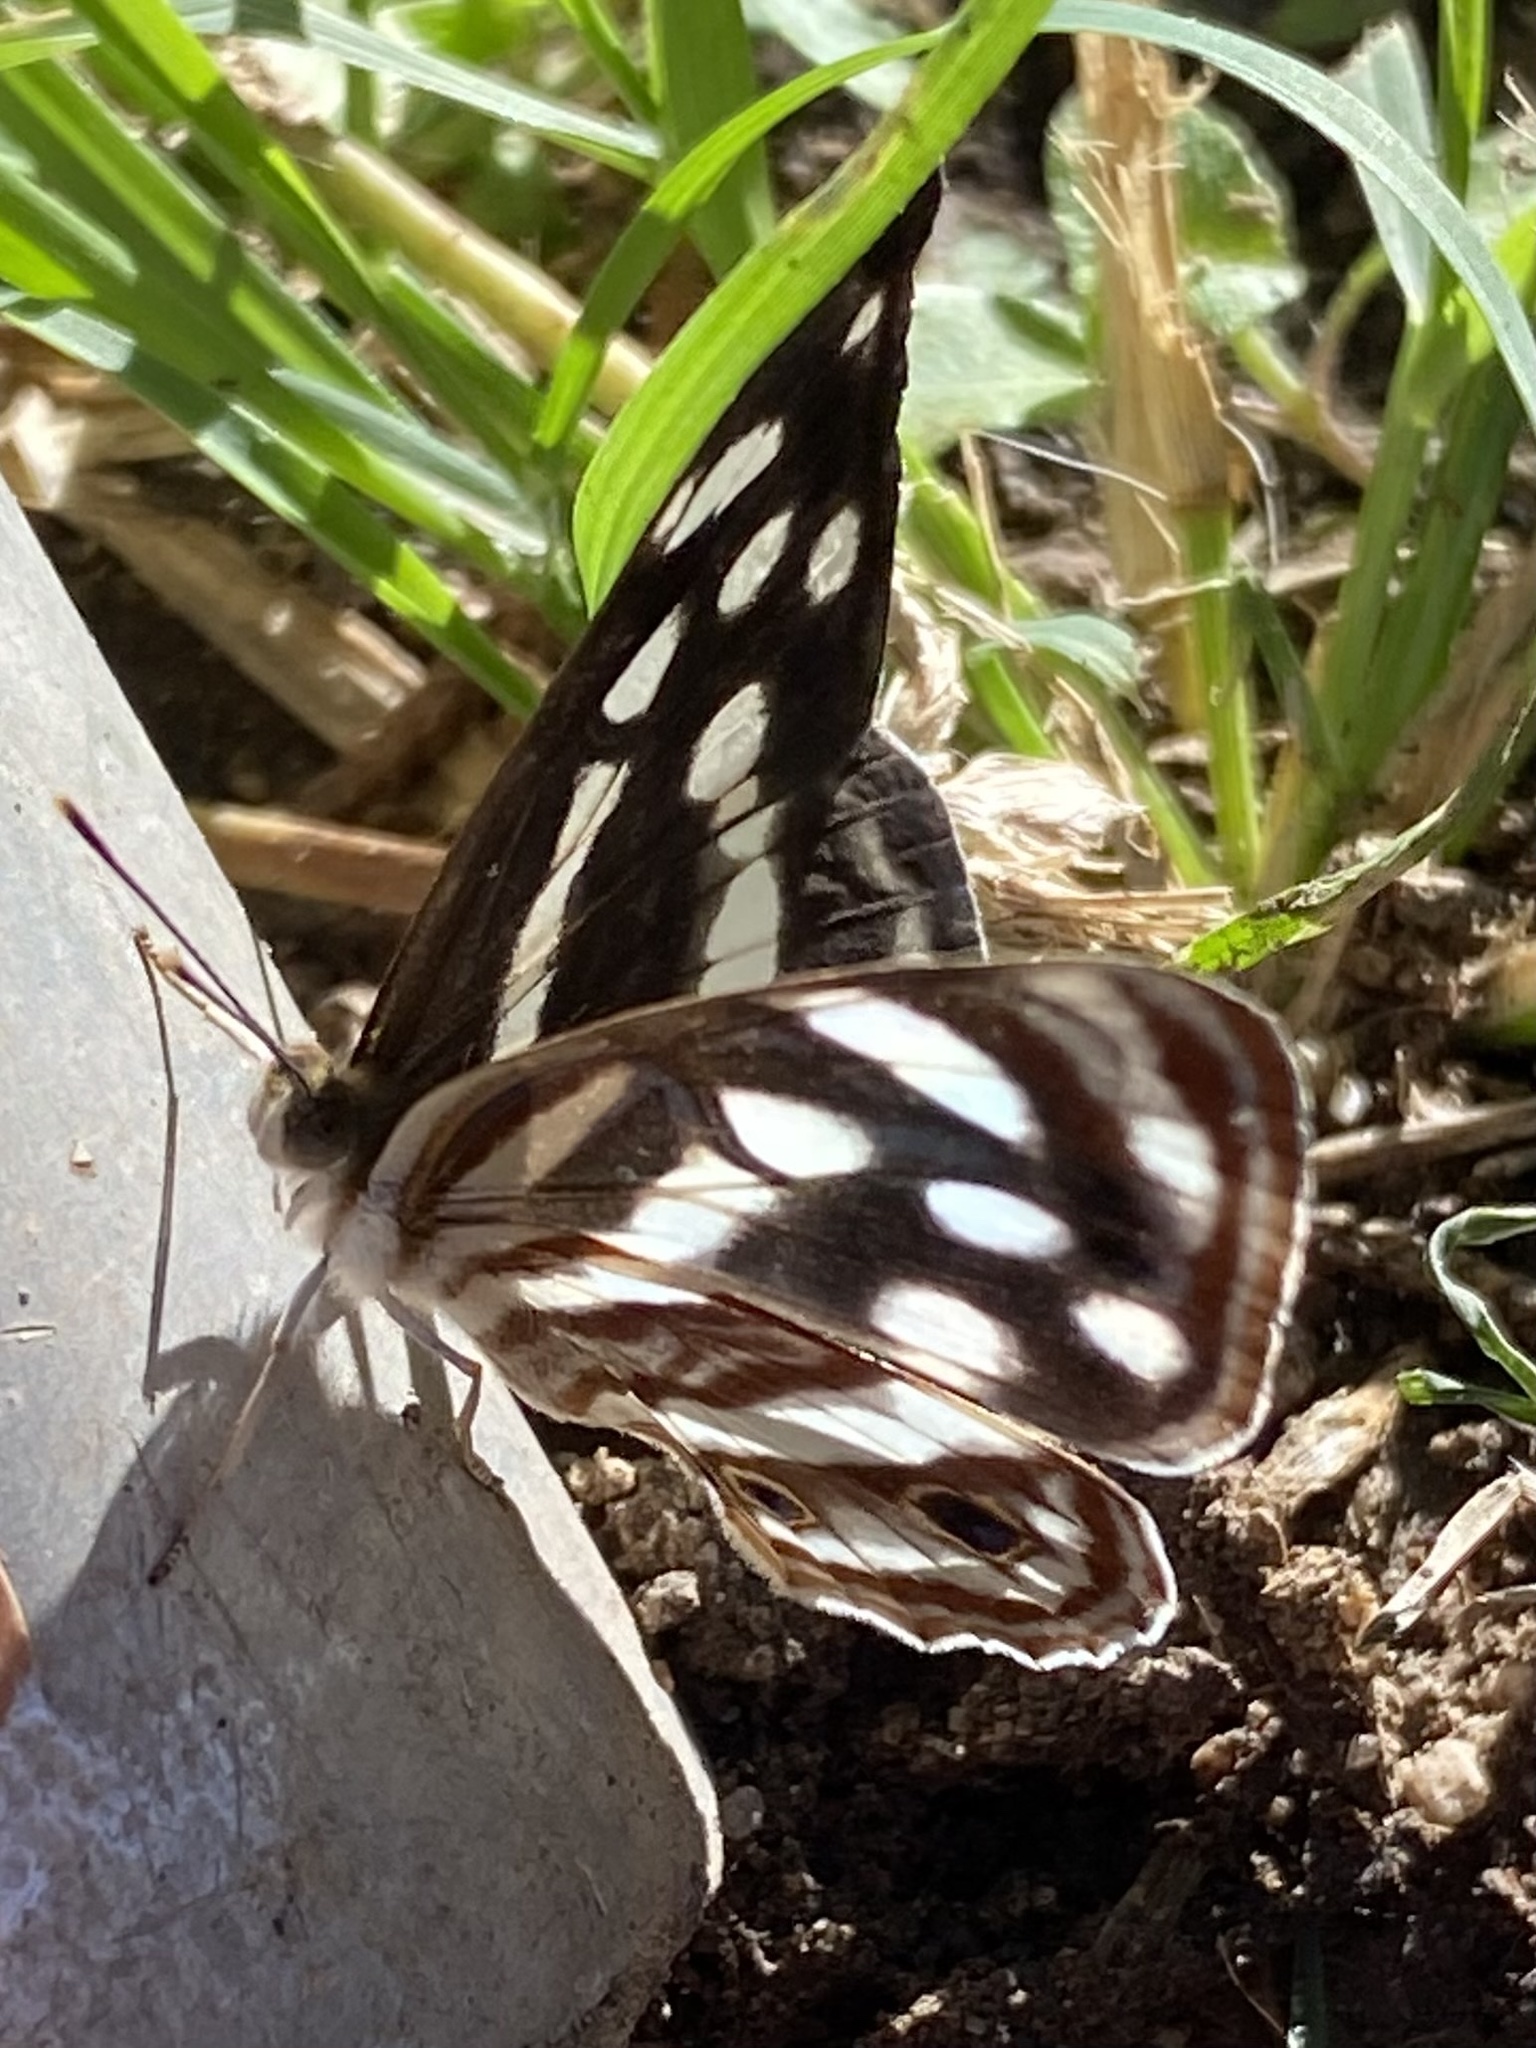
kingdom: Animalia
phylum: Arthropoda
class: Insecta
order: Lepidoptera
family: Nymphalidae
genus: Dynamine
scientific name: Dynamine mylitta
